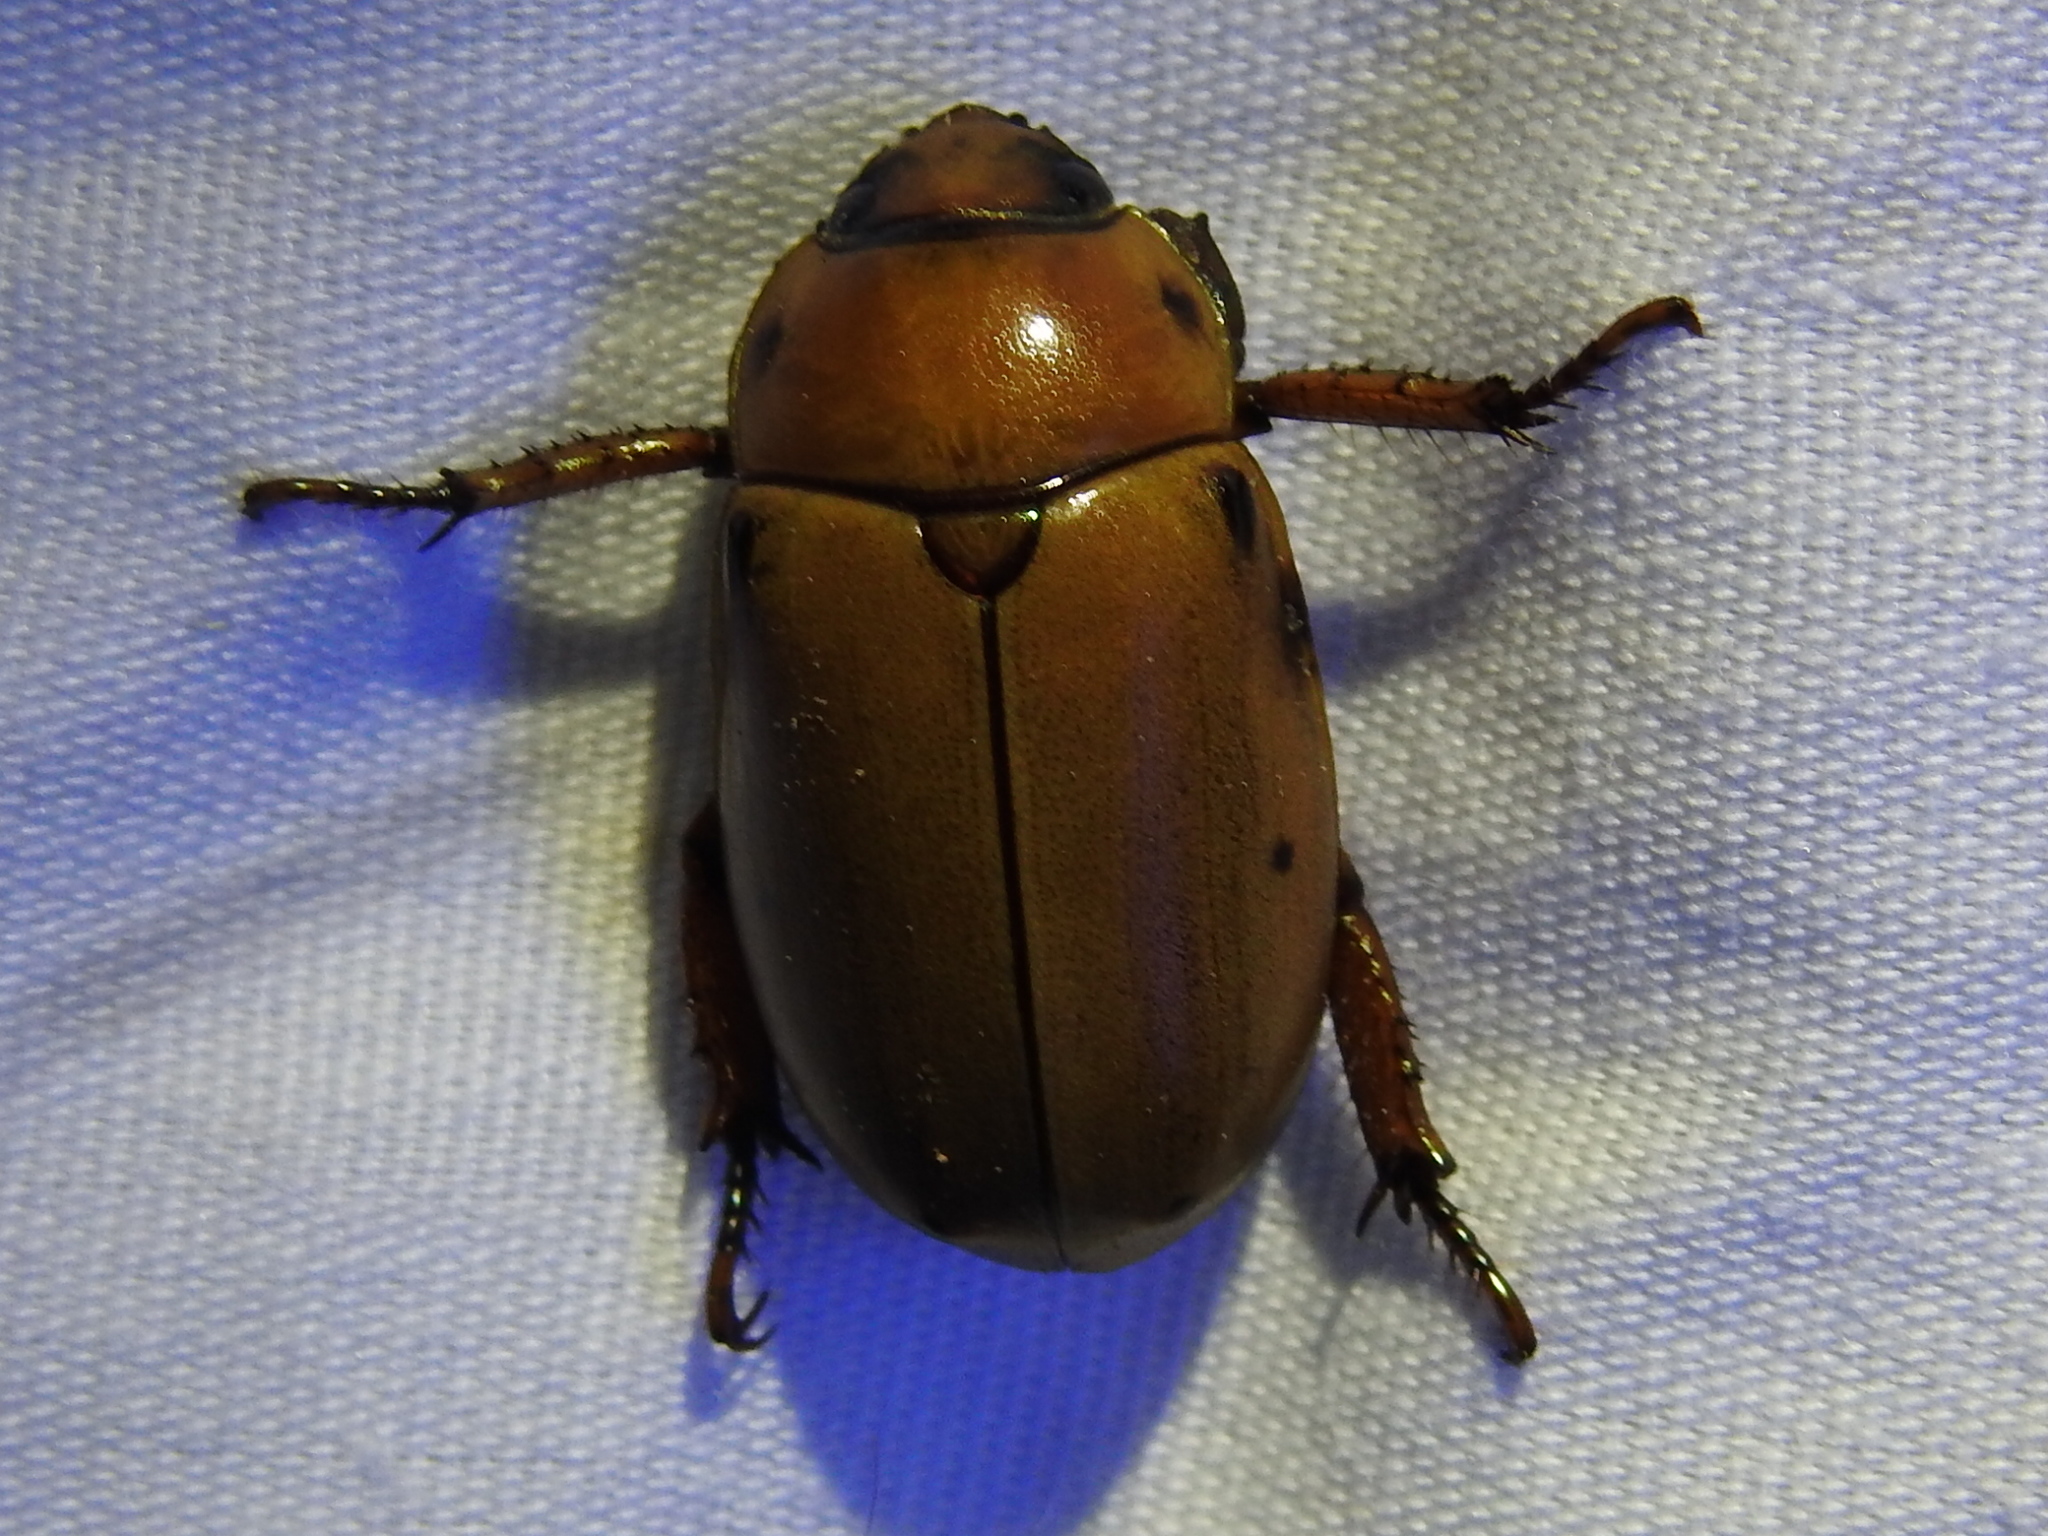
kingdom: Animalia
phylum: Arthropoda
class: Insecta
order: Coleoptera
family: Scarabaeidae
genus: Pelidnota
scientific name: Pelidnota punctata
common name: Grapevine beetle
